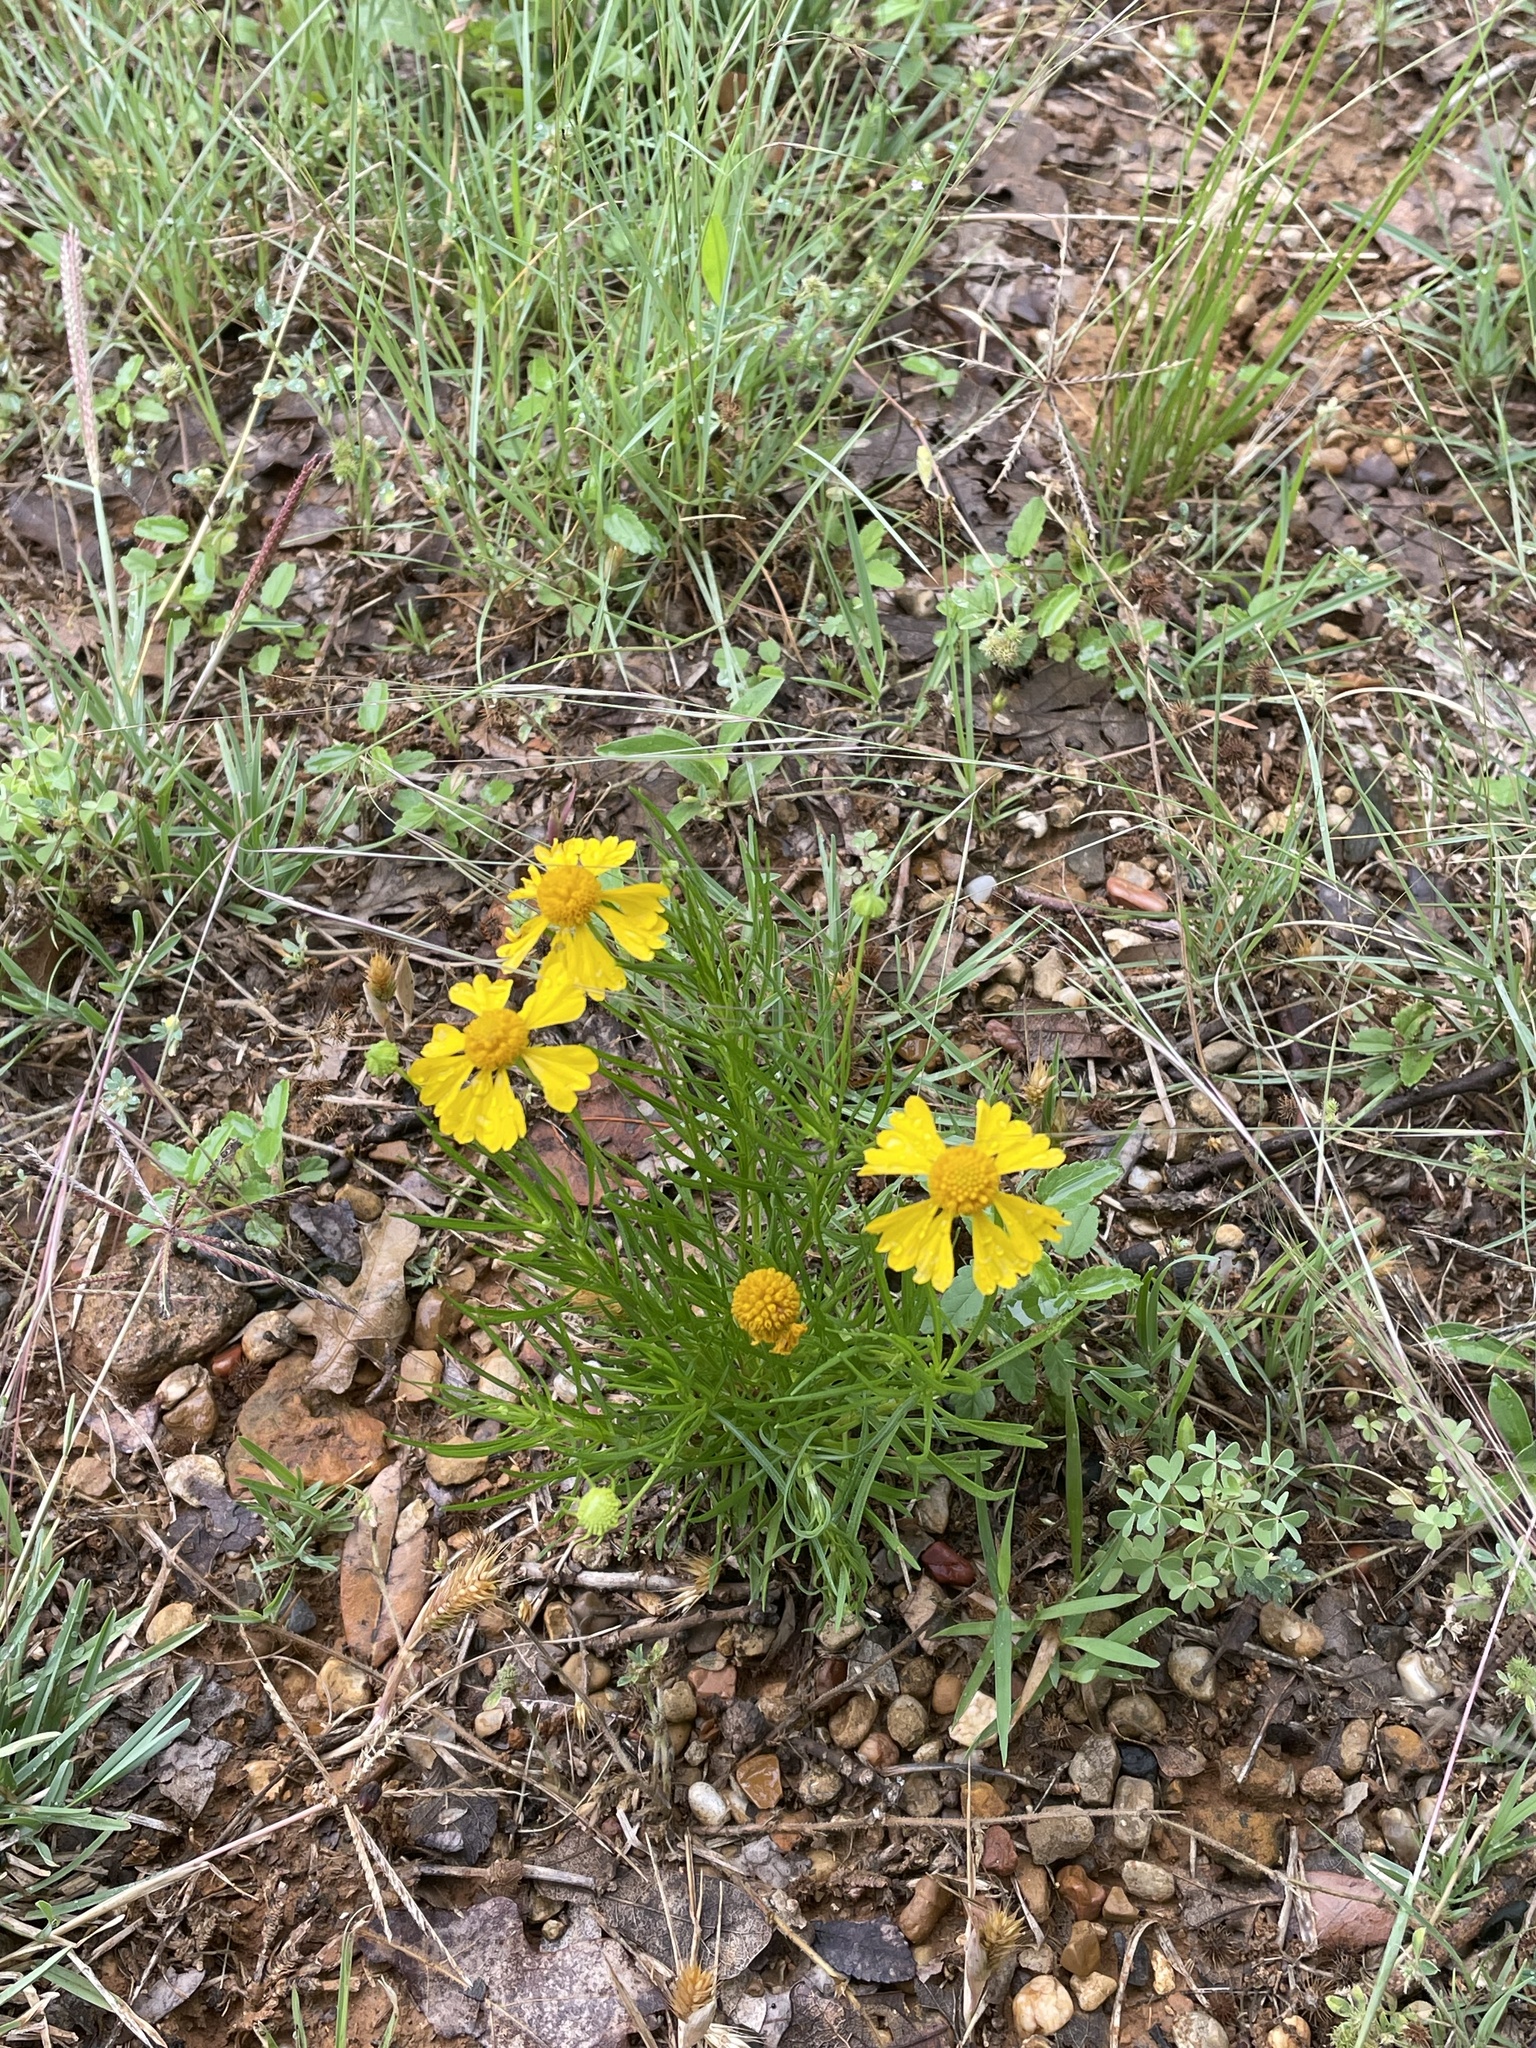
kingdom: Plantae
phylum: Tracheophyta
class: Magnoliopsida
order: Asterales
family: Asteraceae
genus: Helenium
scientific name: Helenium amarum
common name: Bitter sneezeweed
